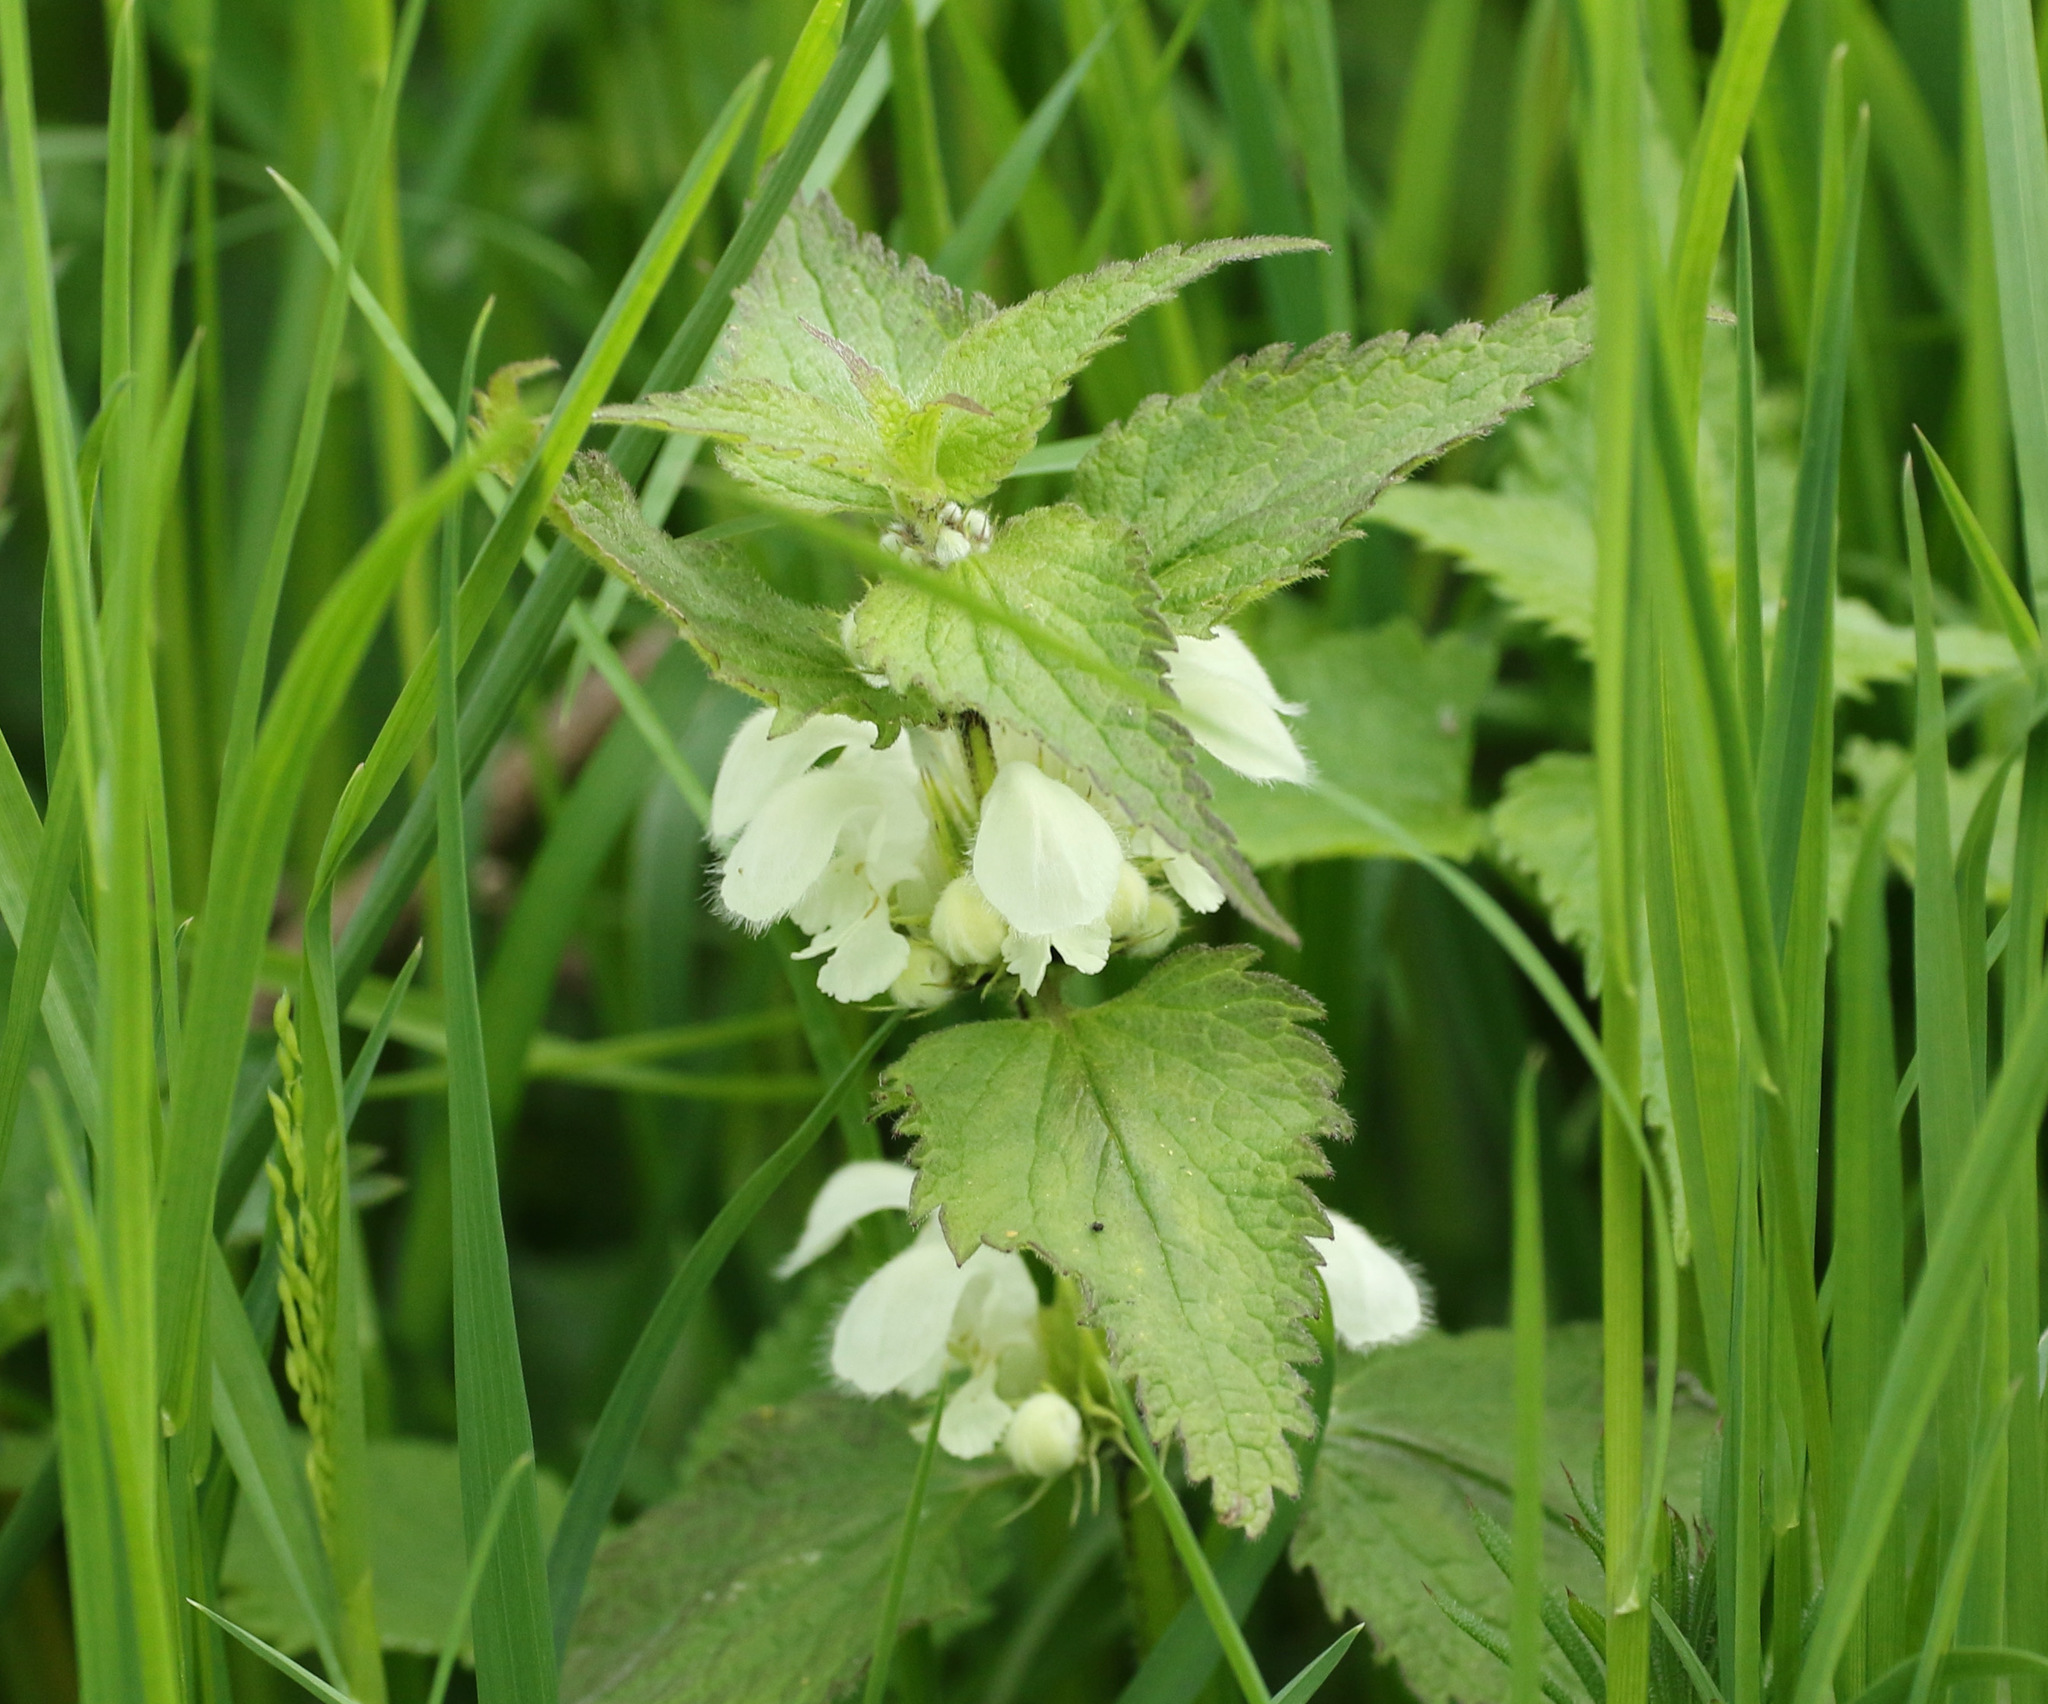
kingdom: Plantae
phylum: Tracheophyta
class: Magnoliopsida
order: Lamiales
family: Lamiaceae
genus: Lamium
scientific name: Lamium album
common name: White dead-nettle
